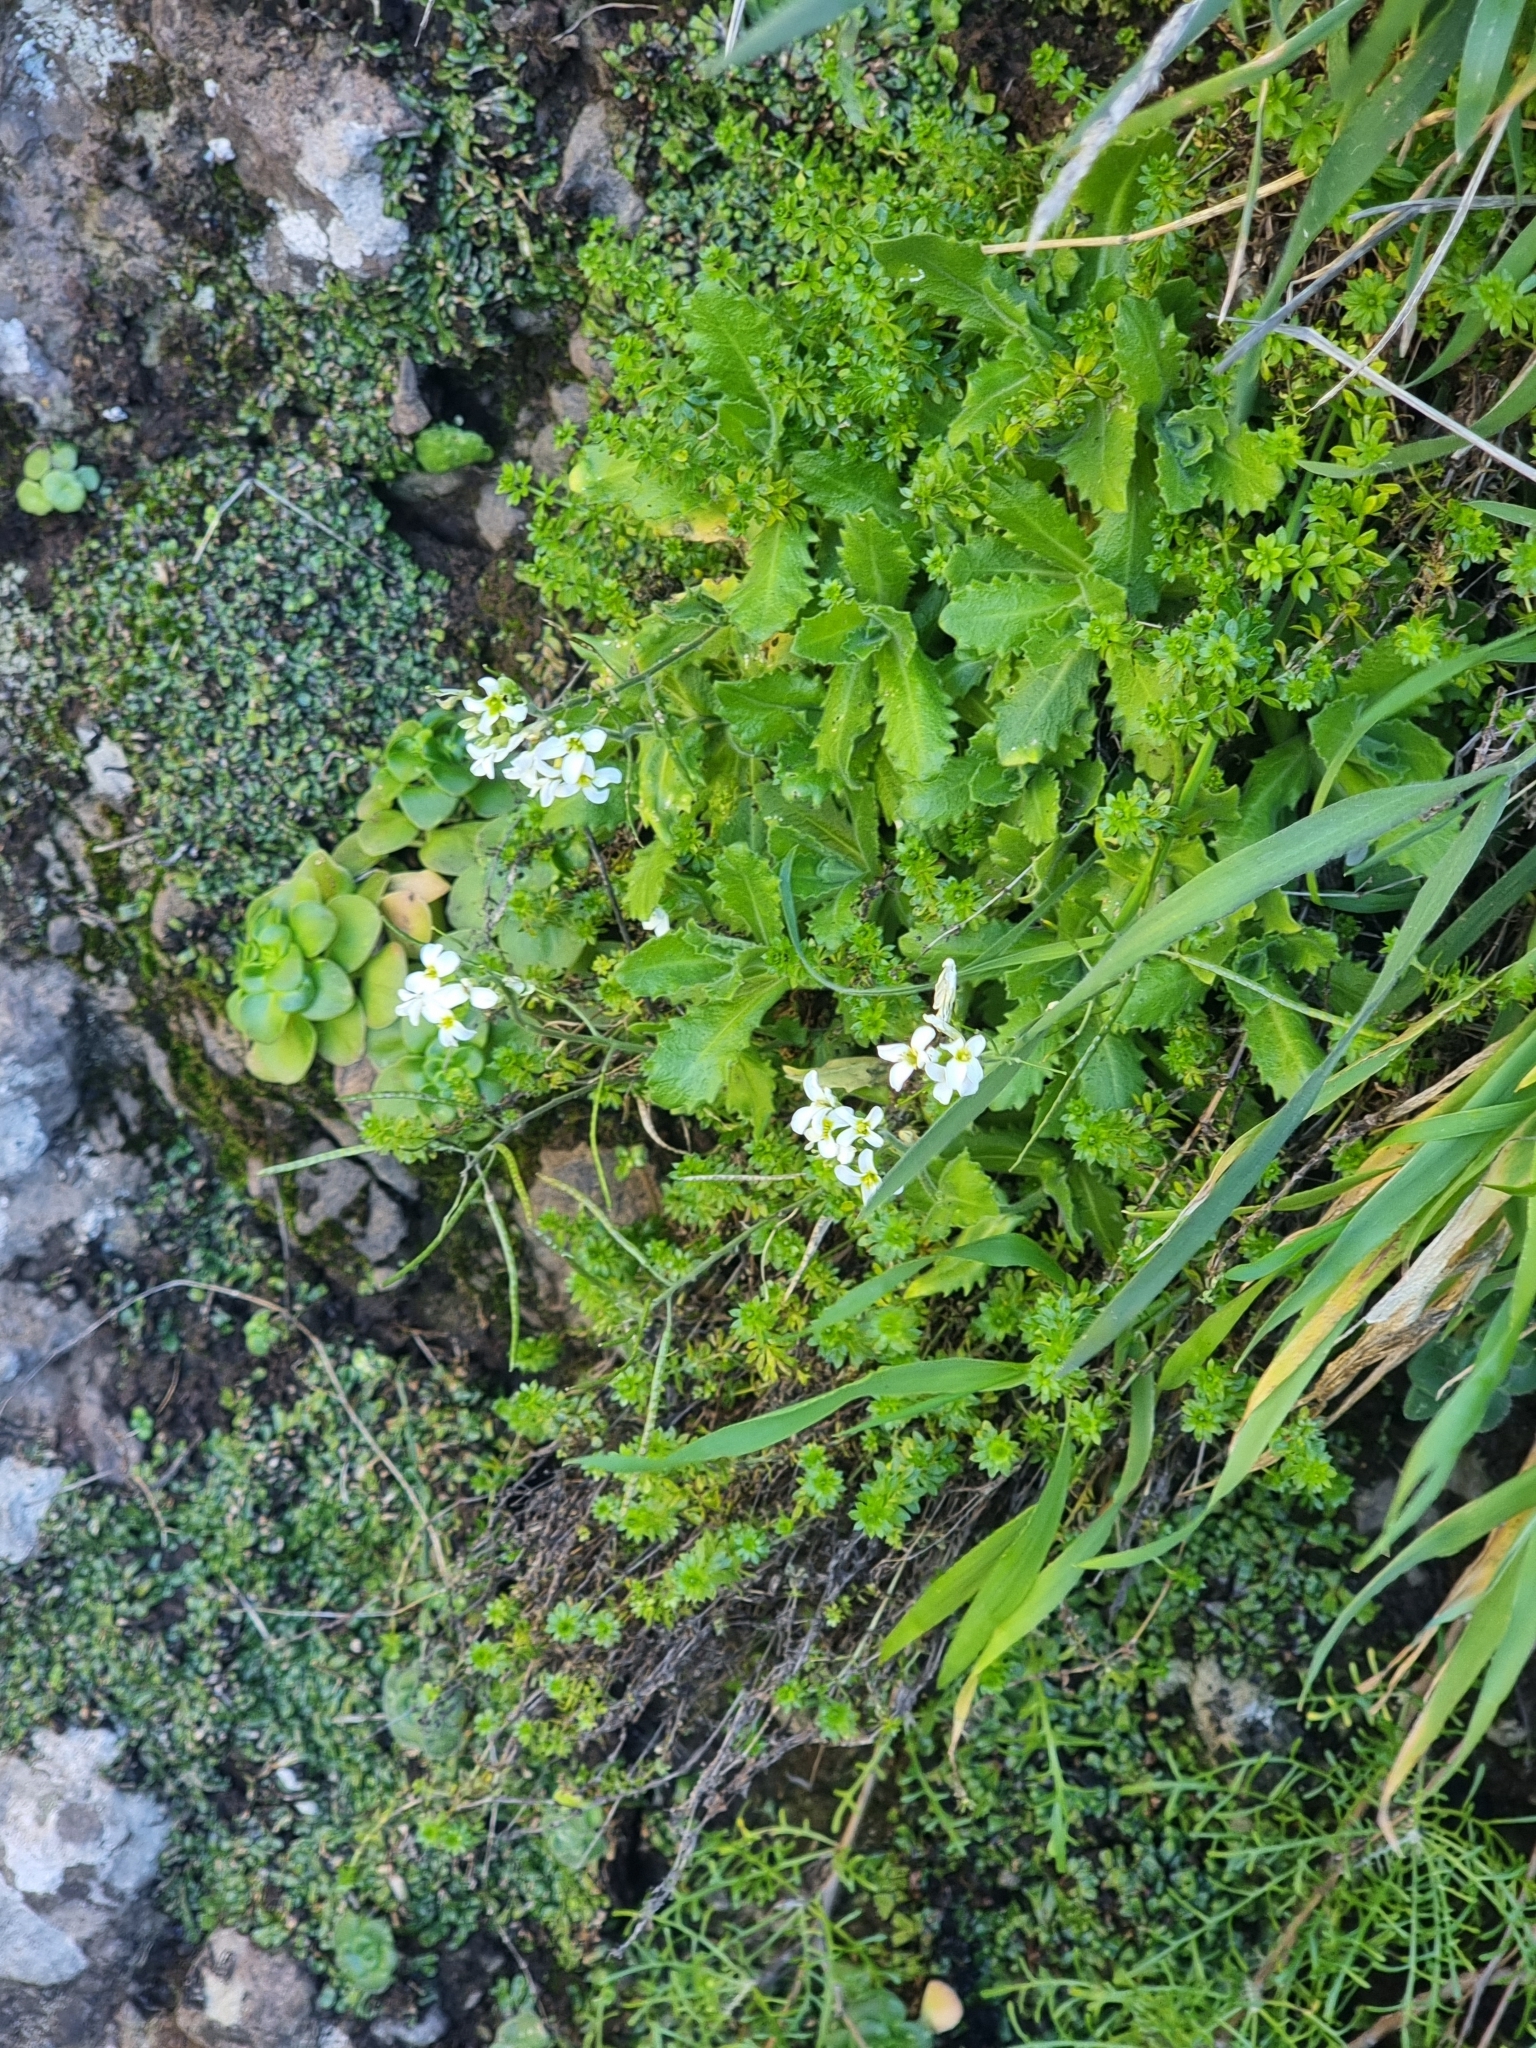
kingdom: Plantae
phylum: Tracheophyta
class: Magnoliopsida
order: Brassicales
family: Brassicaceae
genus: Arabis
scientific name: Arabis caucasica
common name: Gray rockcress
